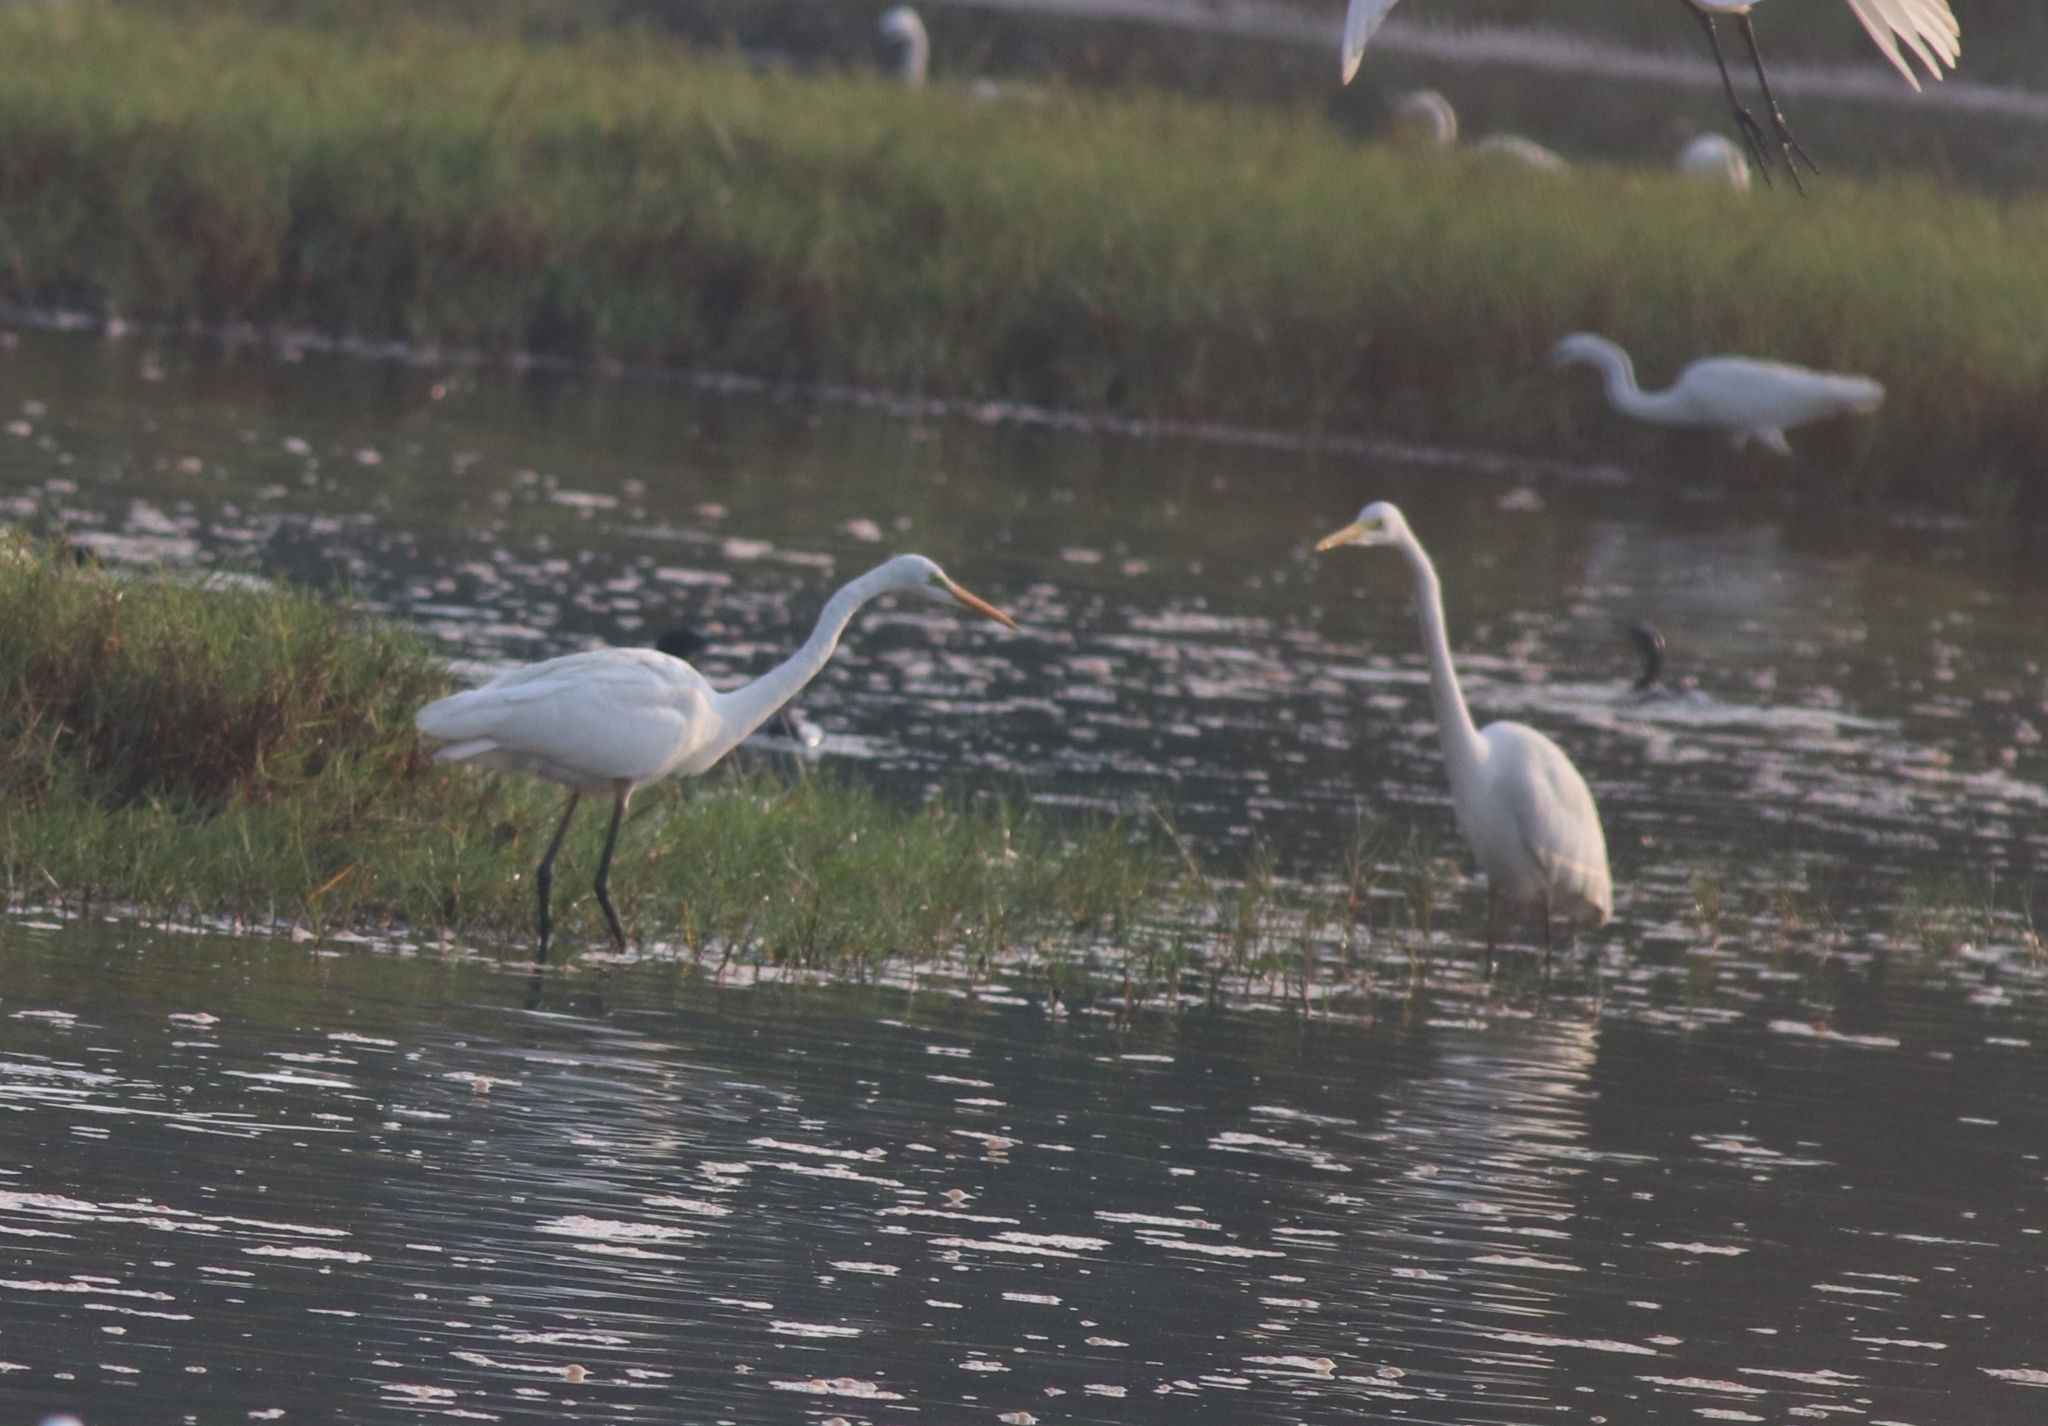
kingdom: Animalia
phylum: Chordata
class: Aves
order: Pelecaniformes
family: Ardeidae
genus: Ardea
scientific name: Ardea alba
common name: Great egret
